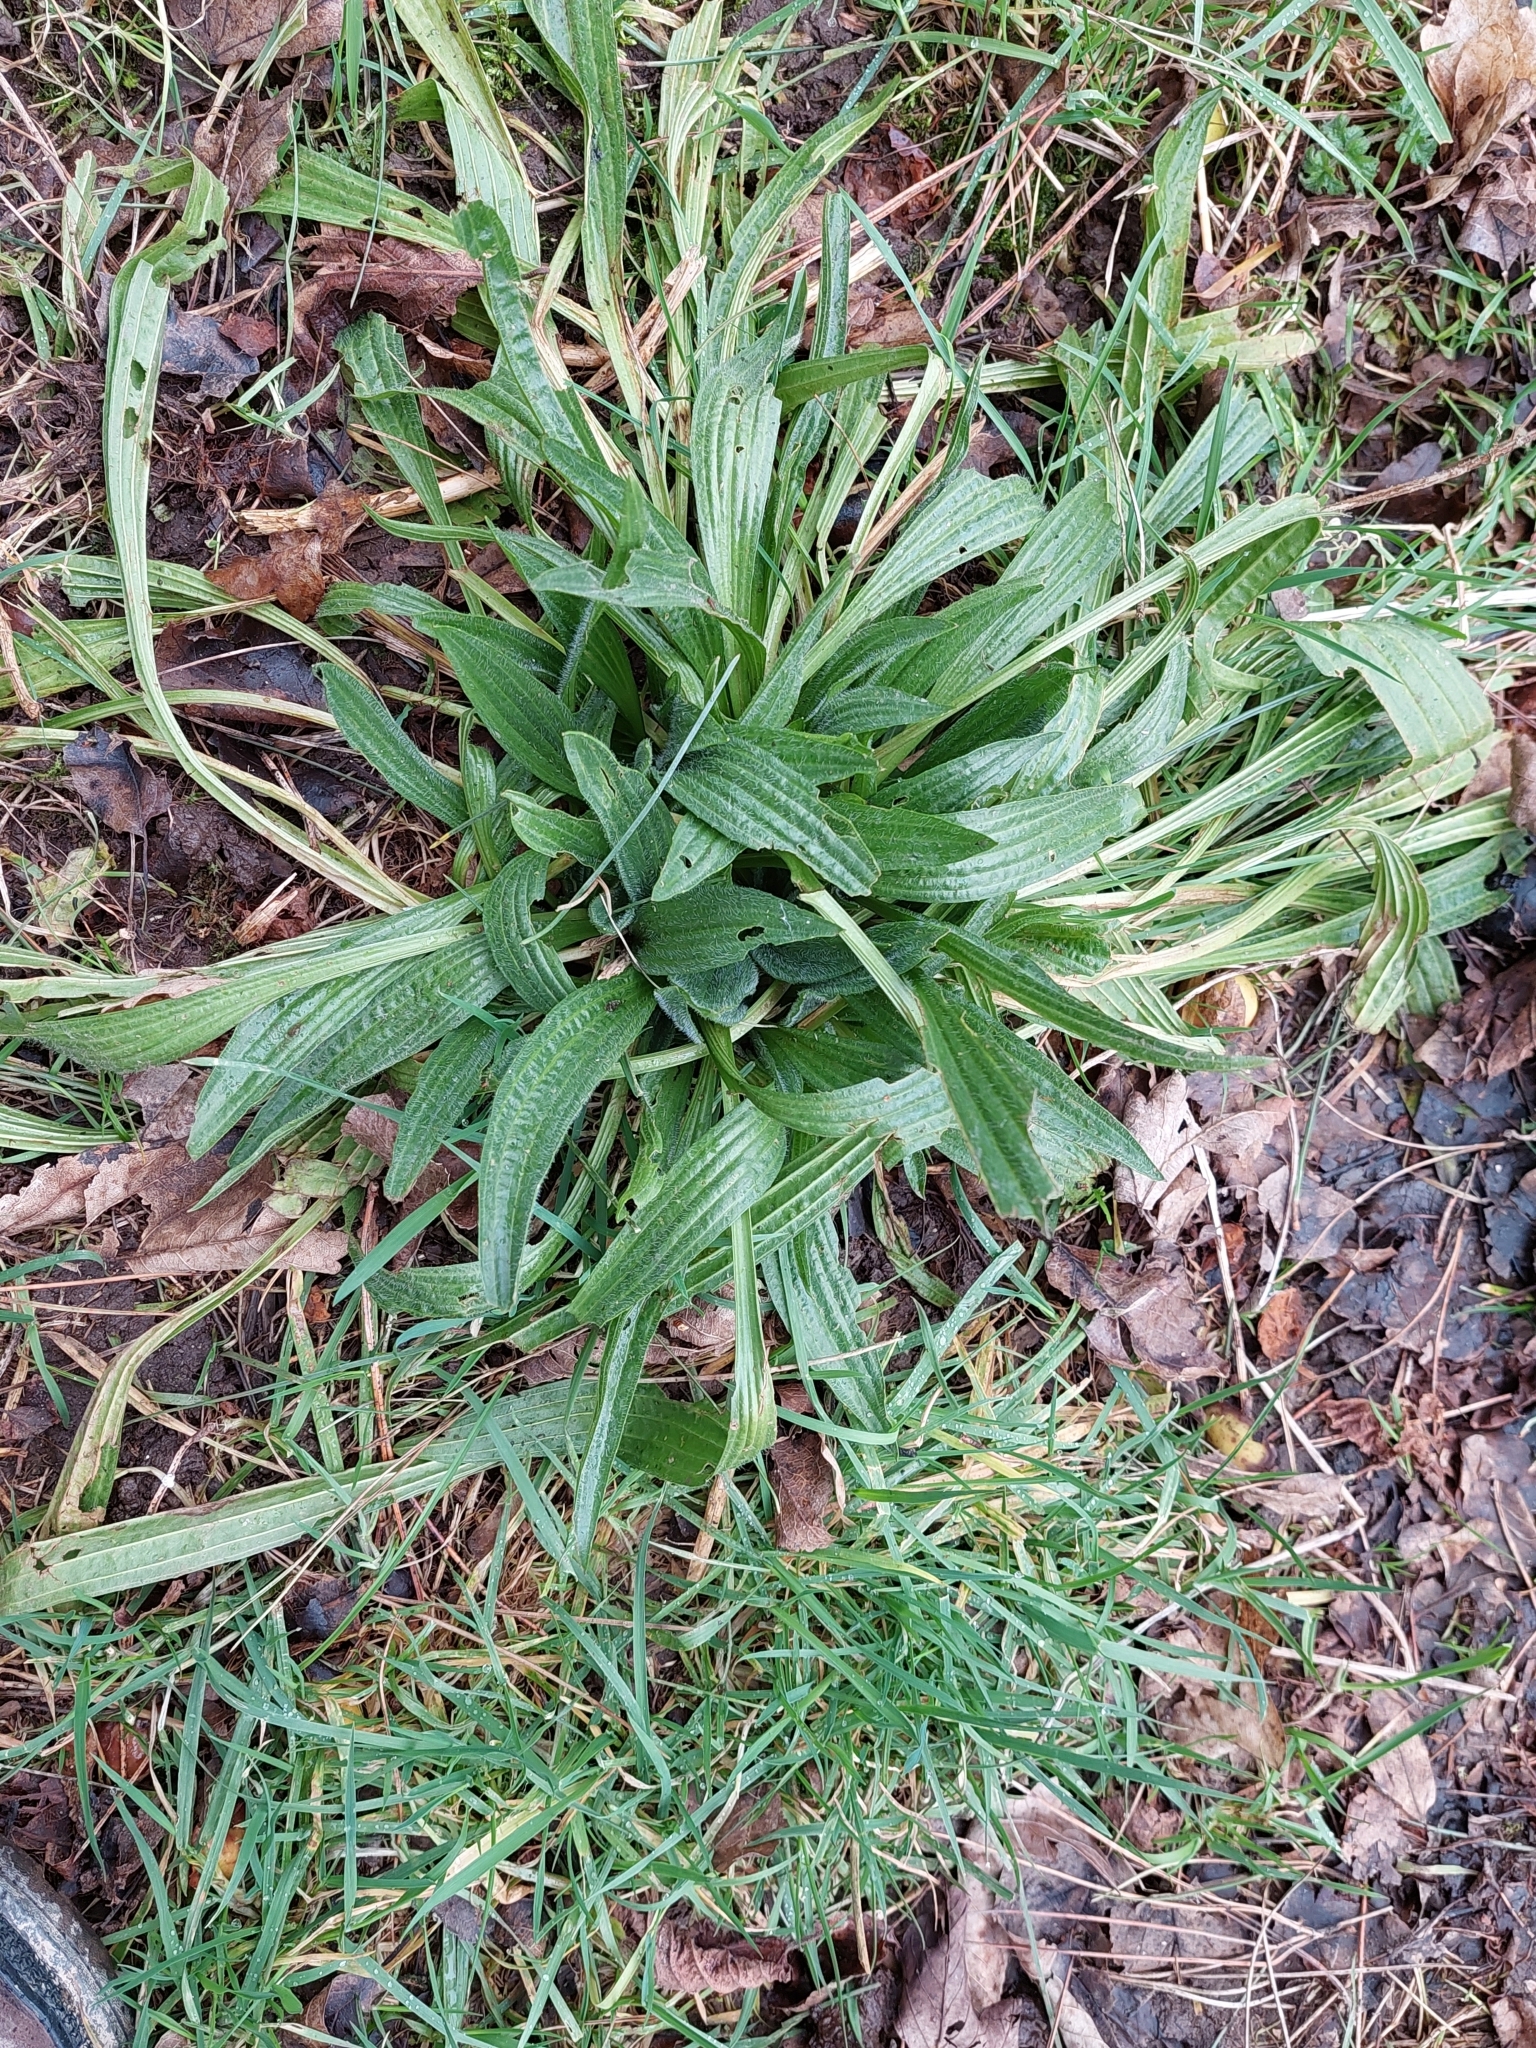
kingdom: Plantae
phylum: Tracheophyta
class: Magnoliopsida
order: Lamiales
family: Plantaginaceae
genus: Plantago
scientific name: Plantago lanceolata
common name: Ribwort plantain
